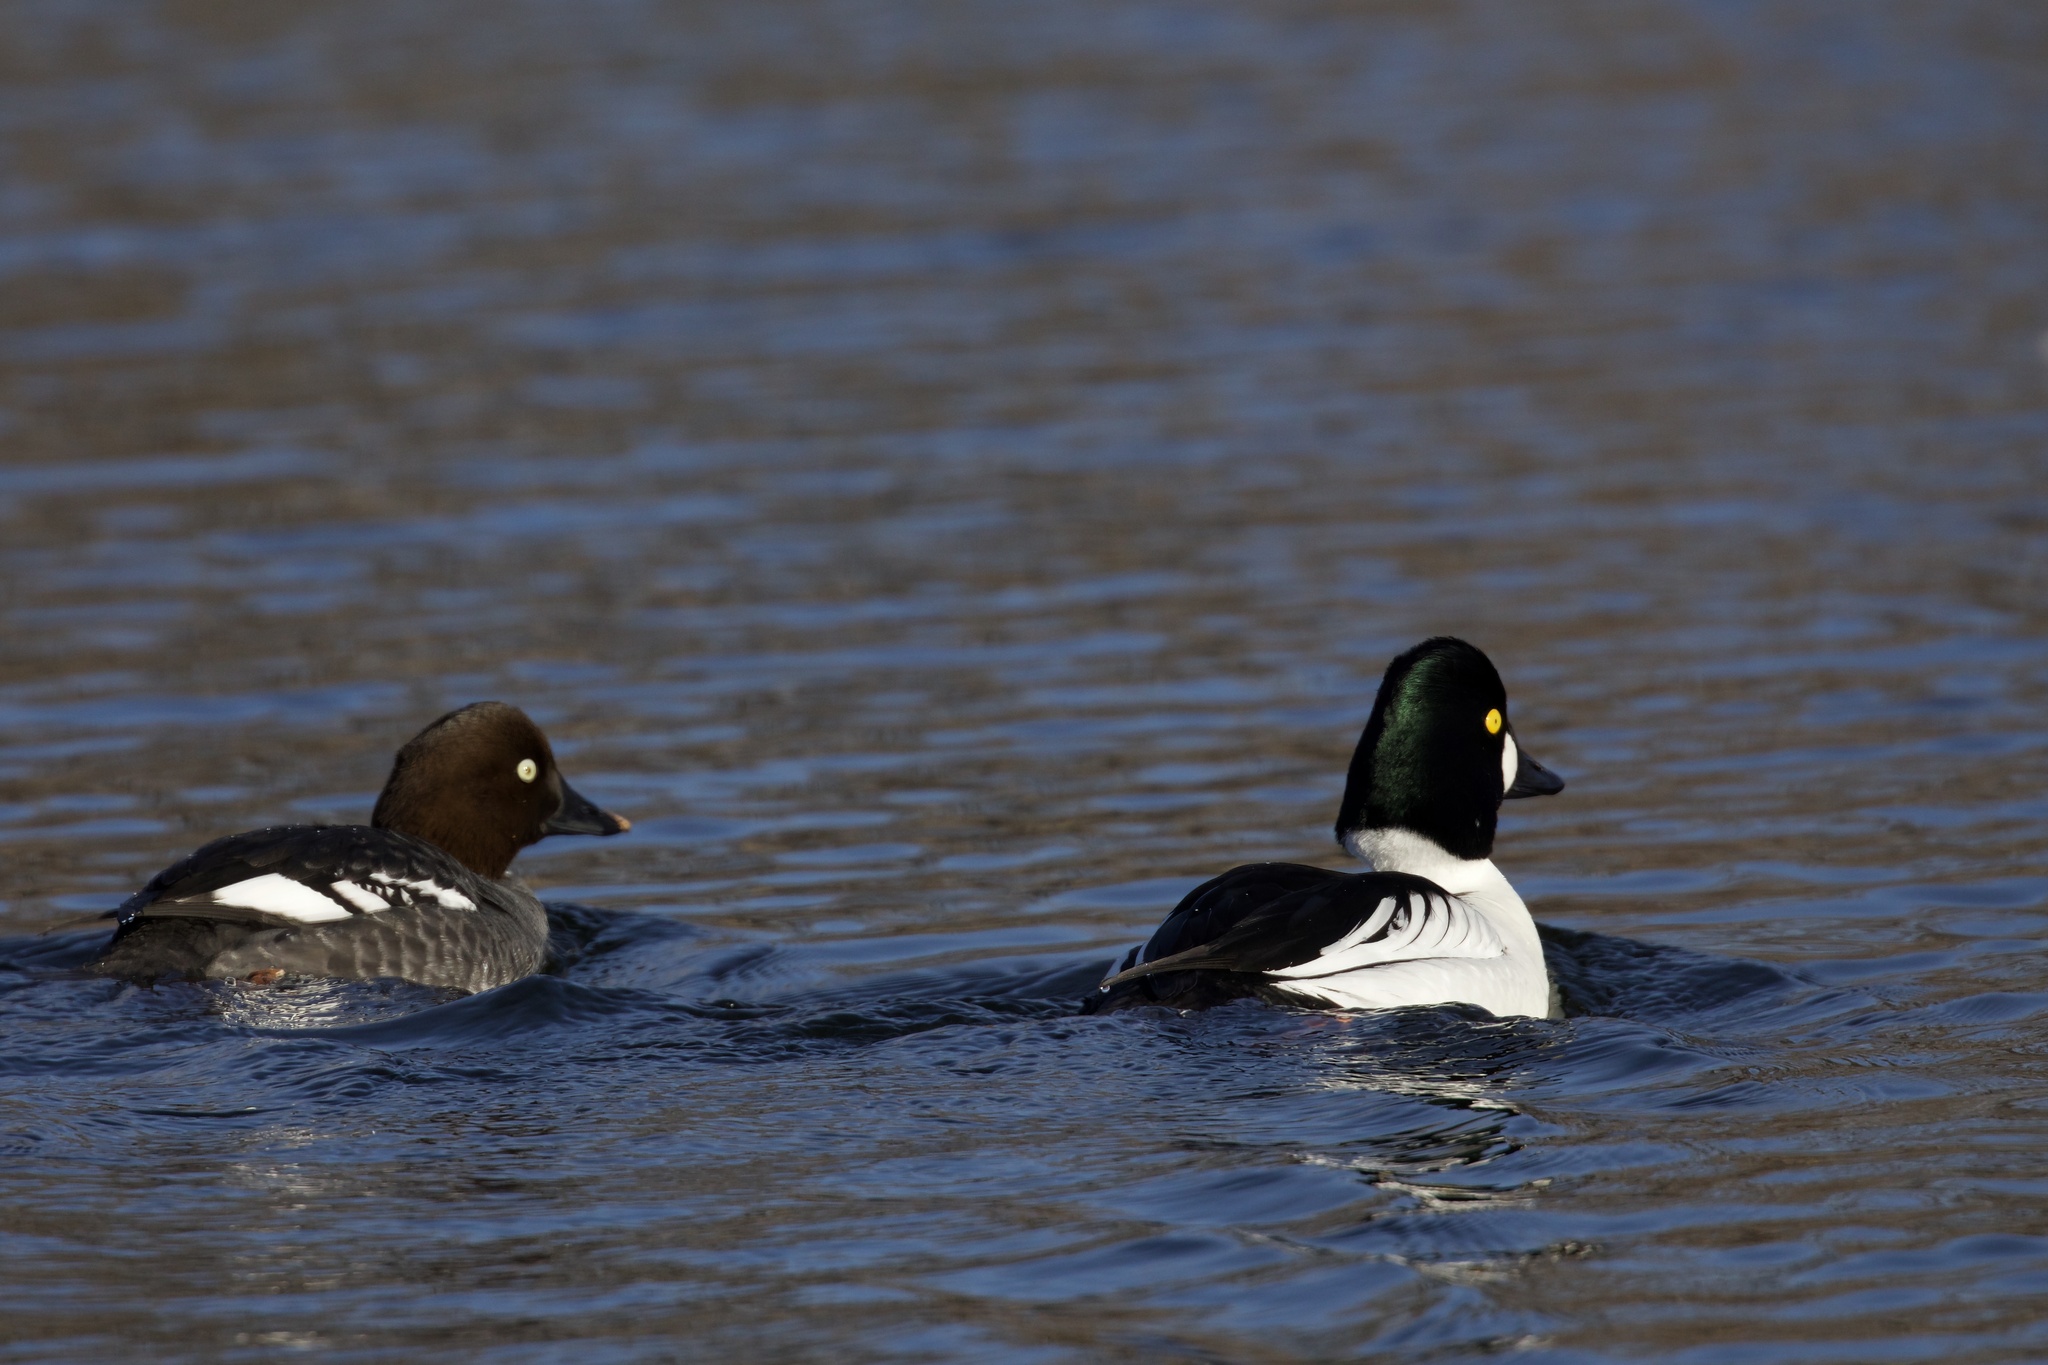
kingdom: Animalia
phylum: Chordata
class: Aves
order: Anseriformes
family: Anatidae
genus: Bucephala
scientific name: Bucephala clangula
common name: Common goldeneye
